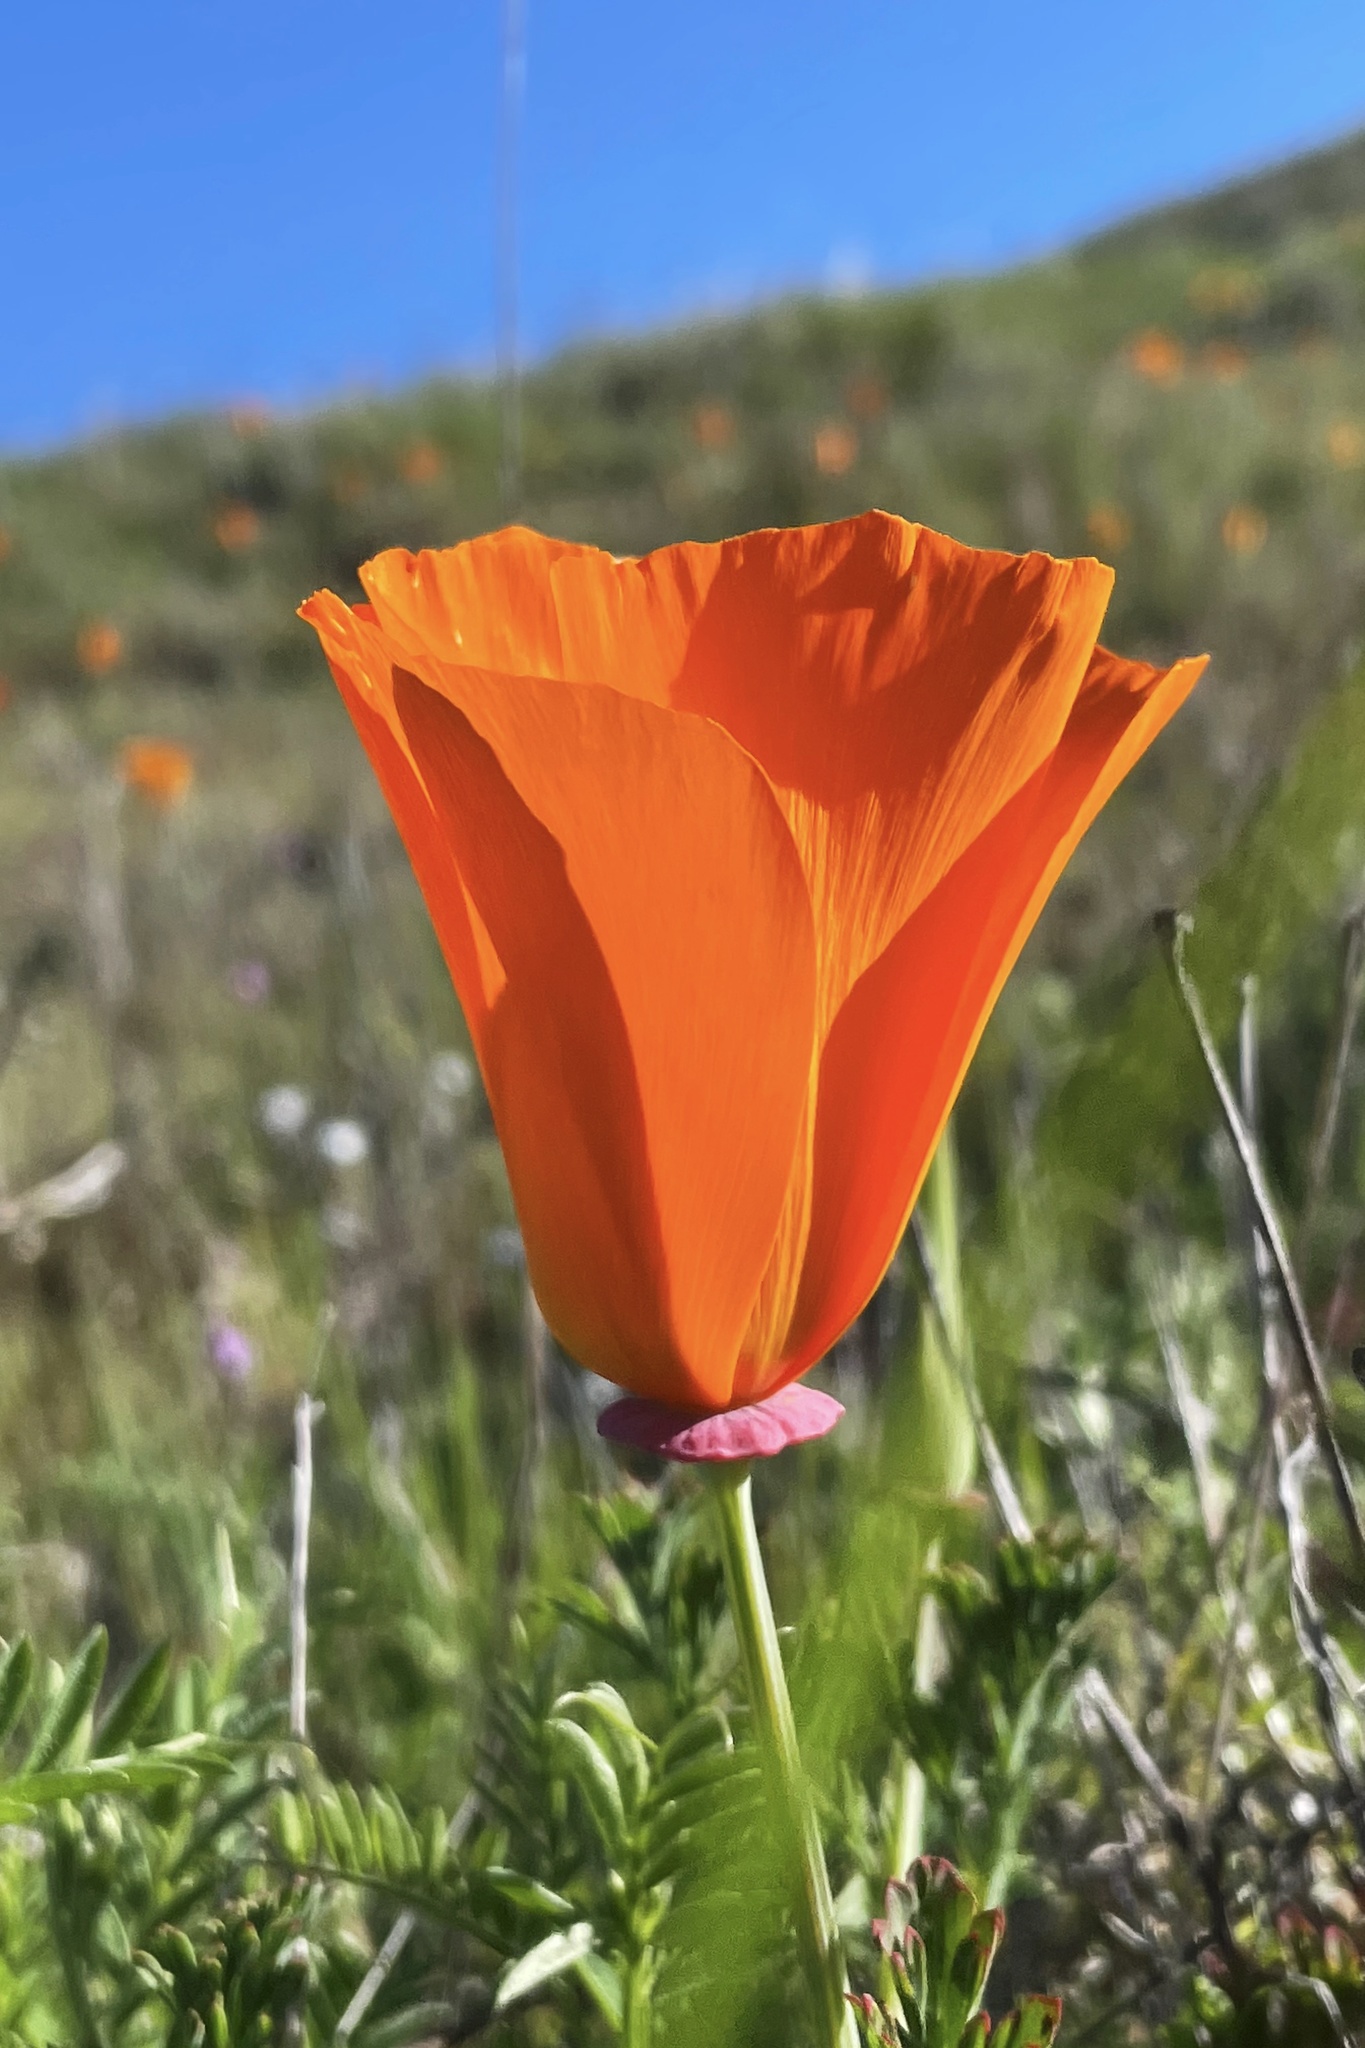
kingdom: Plantae
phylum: Tracheophyta
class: Magnoliopsida
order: Ranunculales
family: Papaveraceae
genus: Eschscholzia
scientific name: Eschscholzia californica
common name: California poppy
